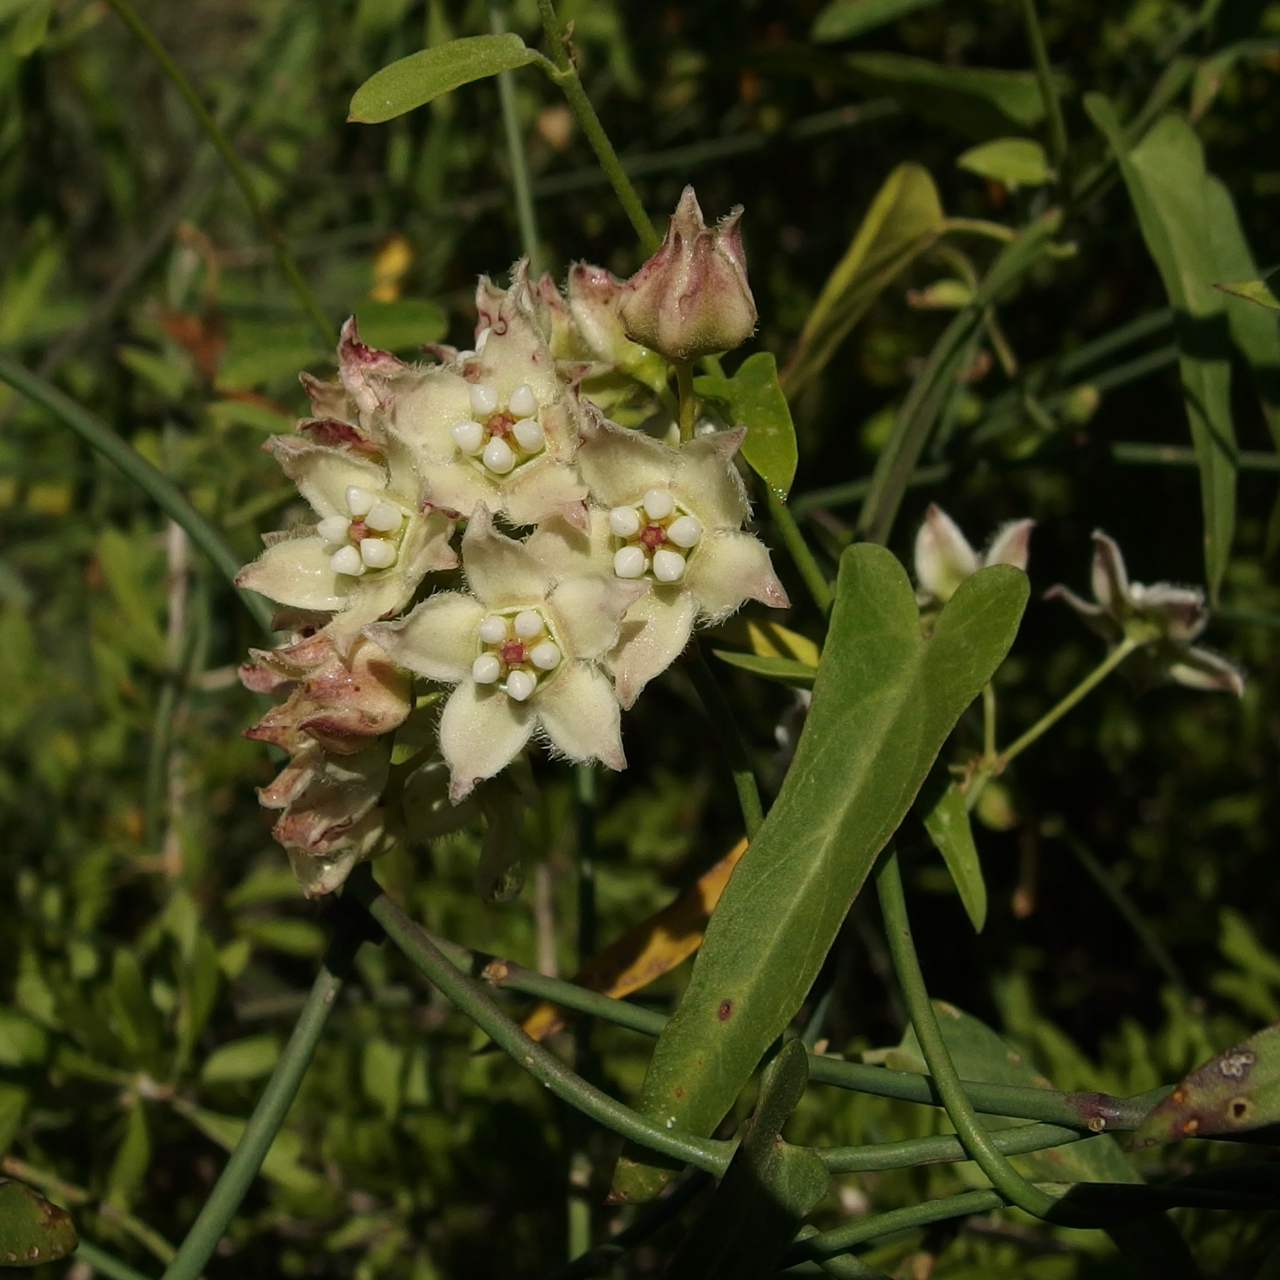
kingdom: Plantae
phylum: Tracheophyta
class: Magnoliopsida
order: Gentianales
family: Apocynaceae
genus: Funastrum
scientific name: Funastrum heterophyllum
